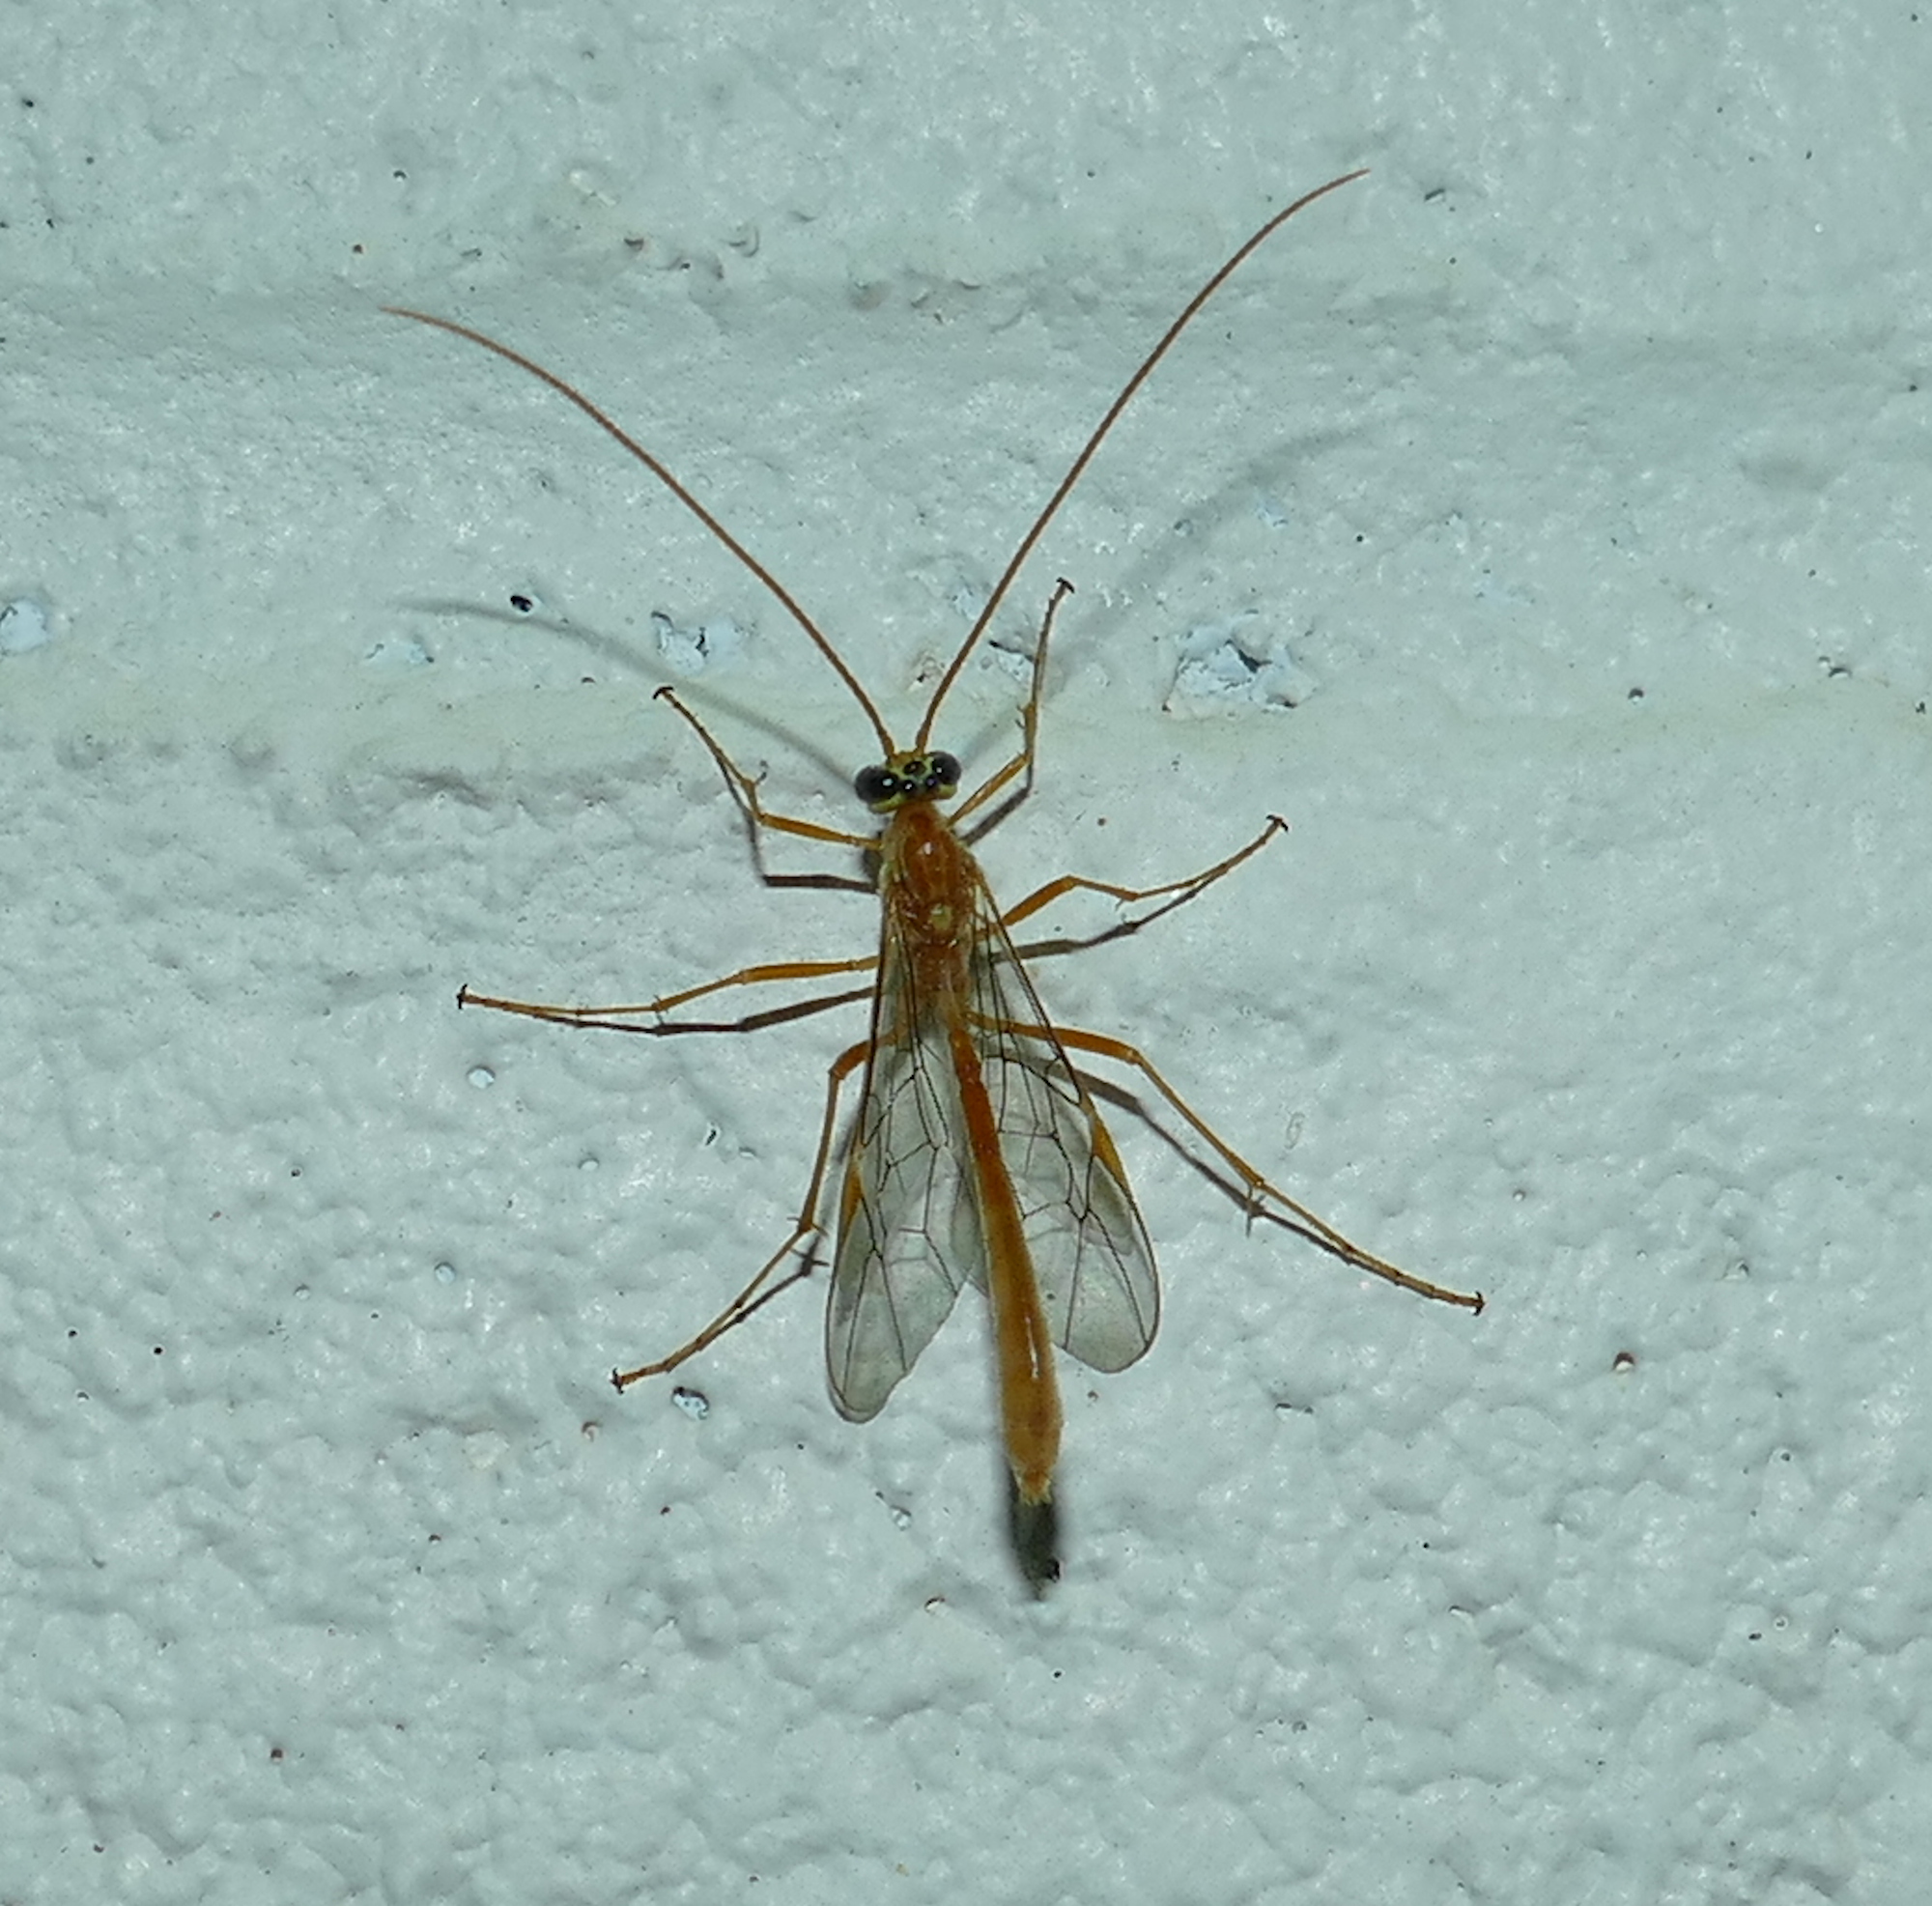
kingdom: Animalia
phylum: Arthropoda
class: Insecta
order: Hymenoptera
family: Ichneumonidae
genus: Ophion
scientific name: Ophion
